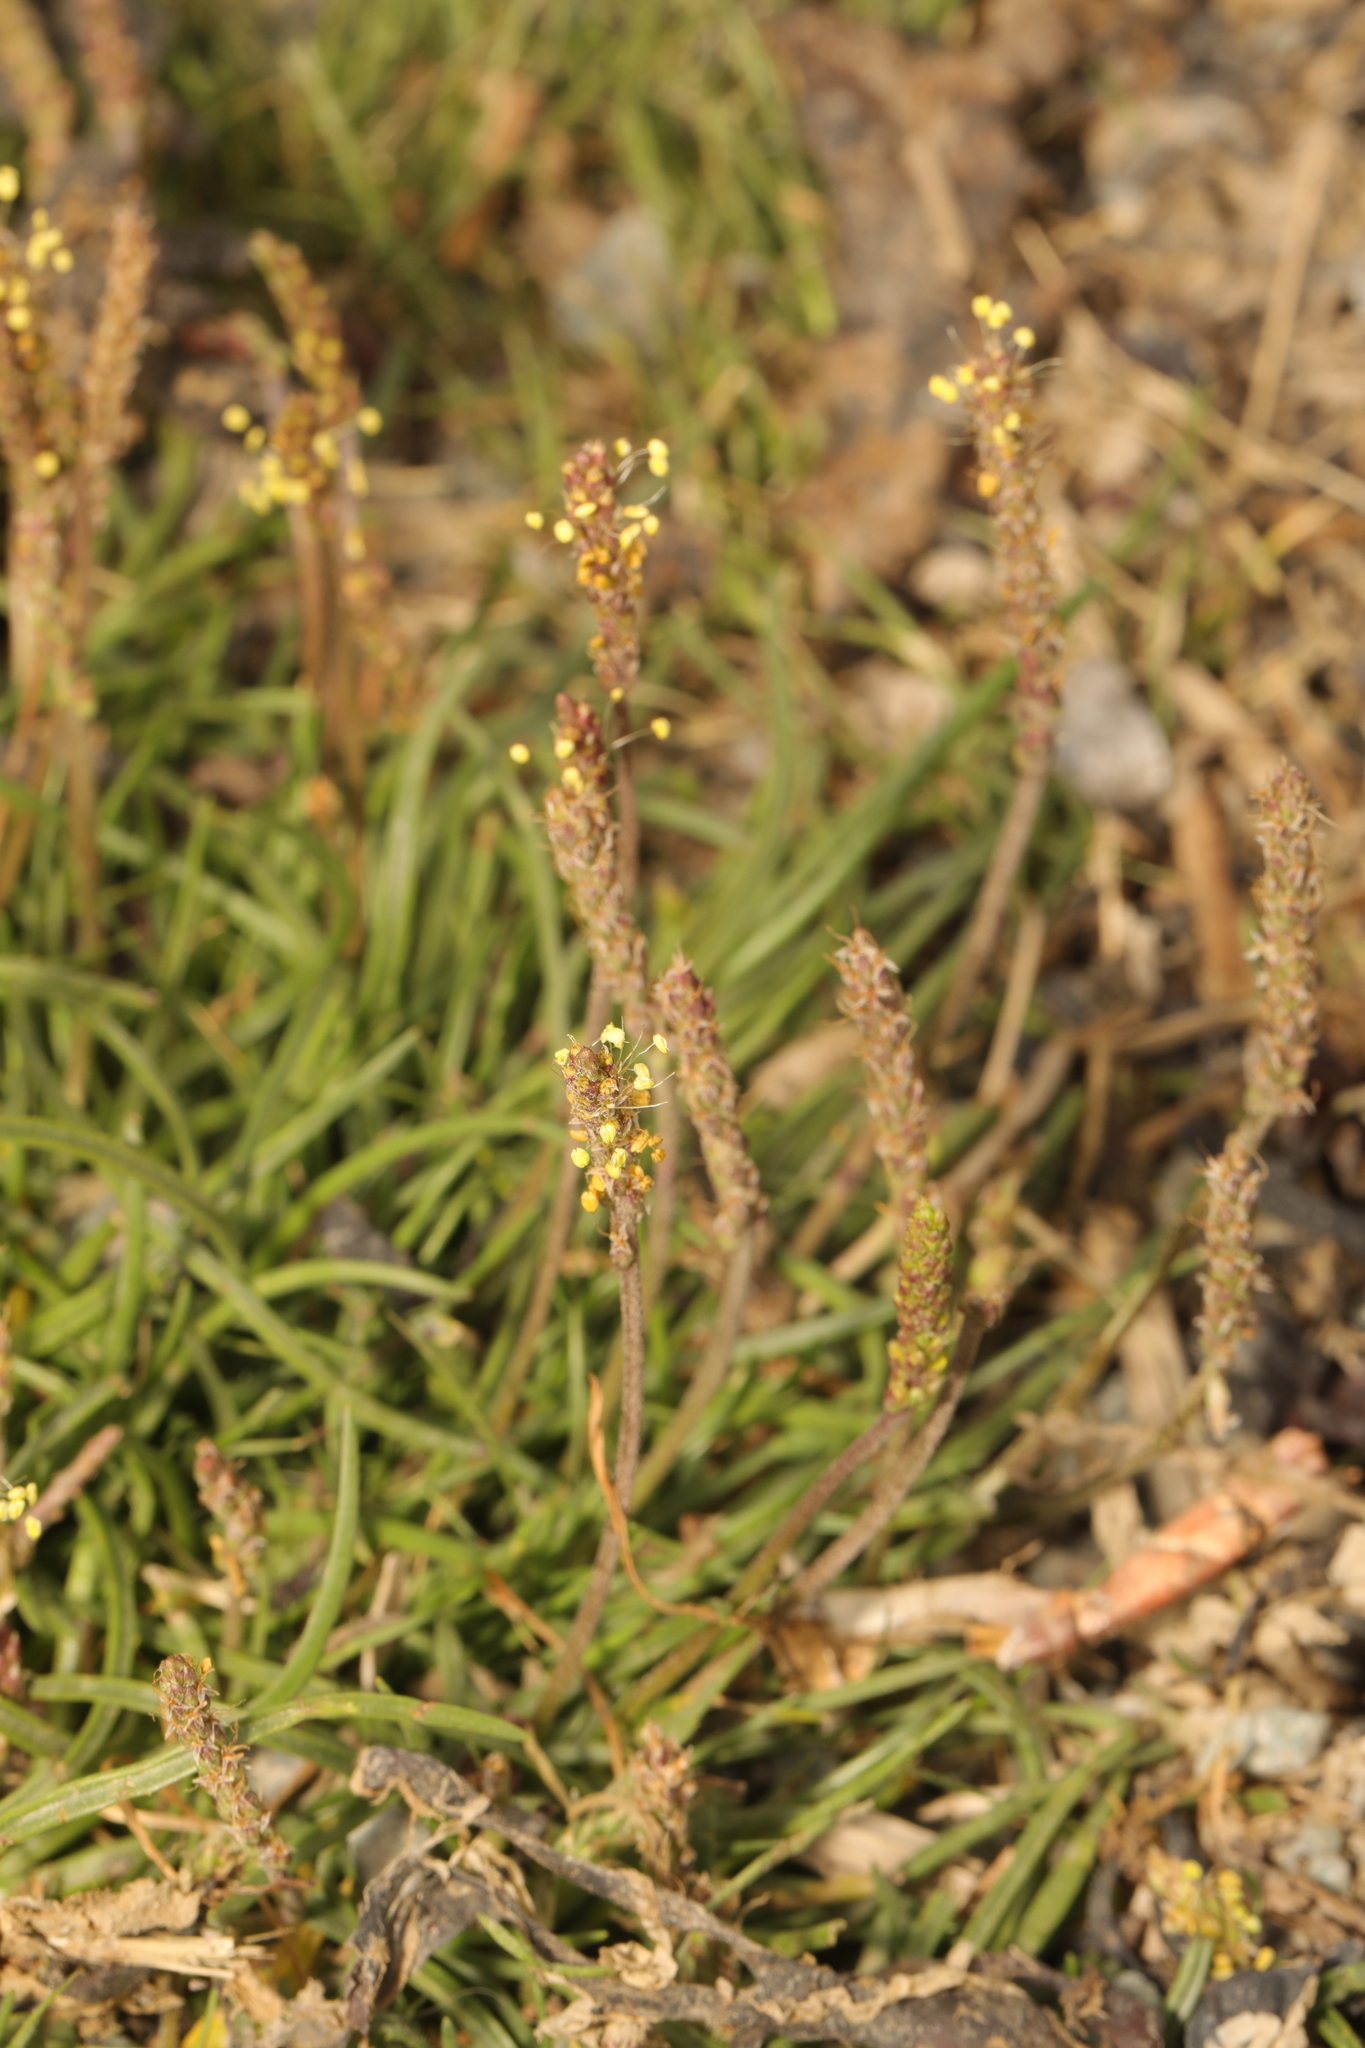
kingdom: Plantae
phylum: Tracheophyta
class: Magnoliopsida
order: Lamiales
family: Plantaginaceae
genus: Plantago
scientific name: Plantago maritima
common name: Sea plantain
